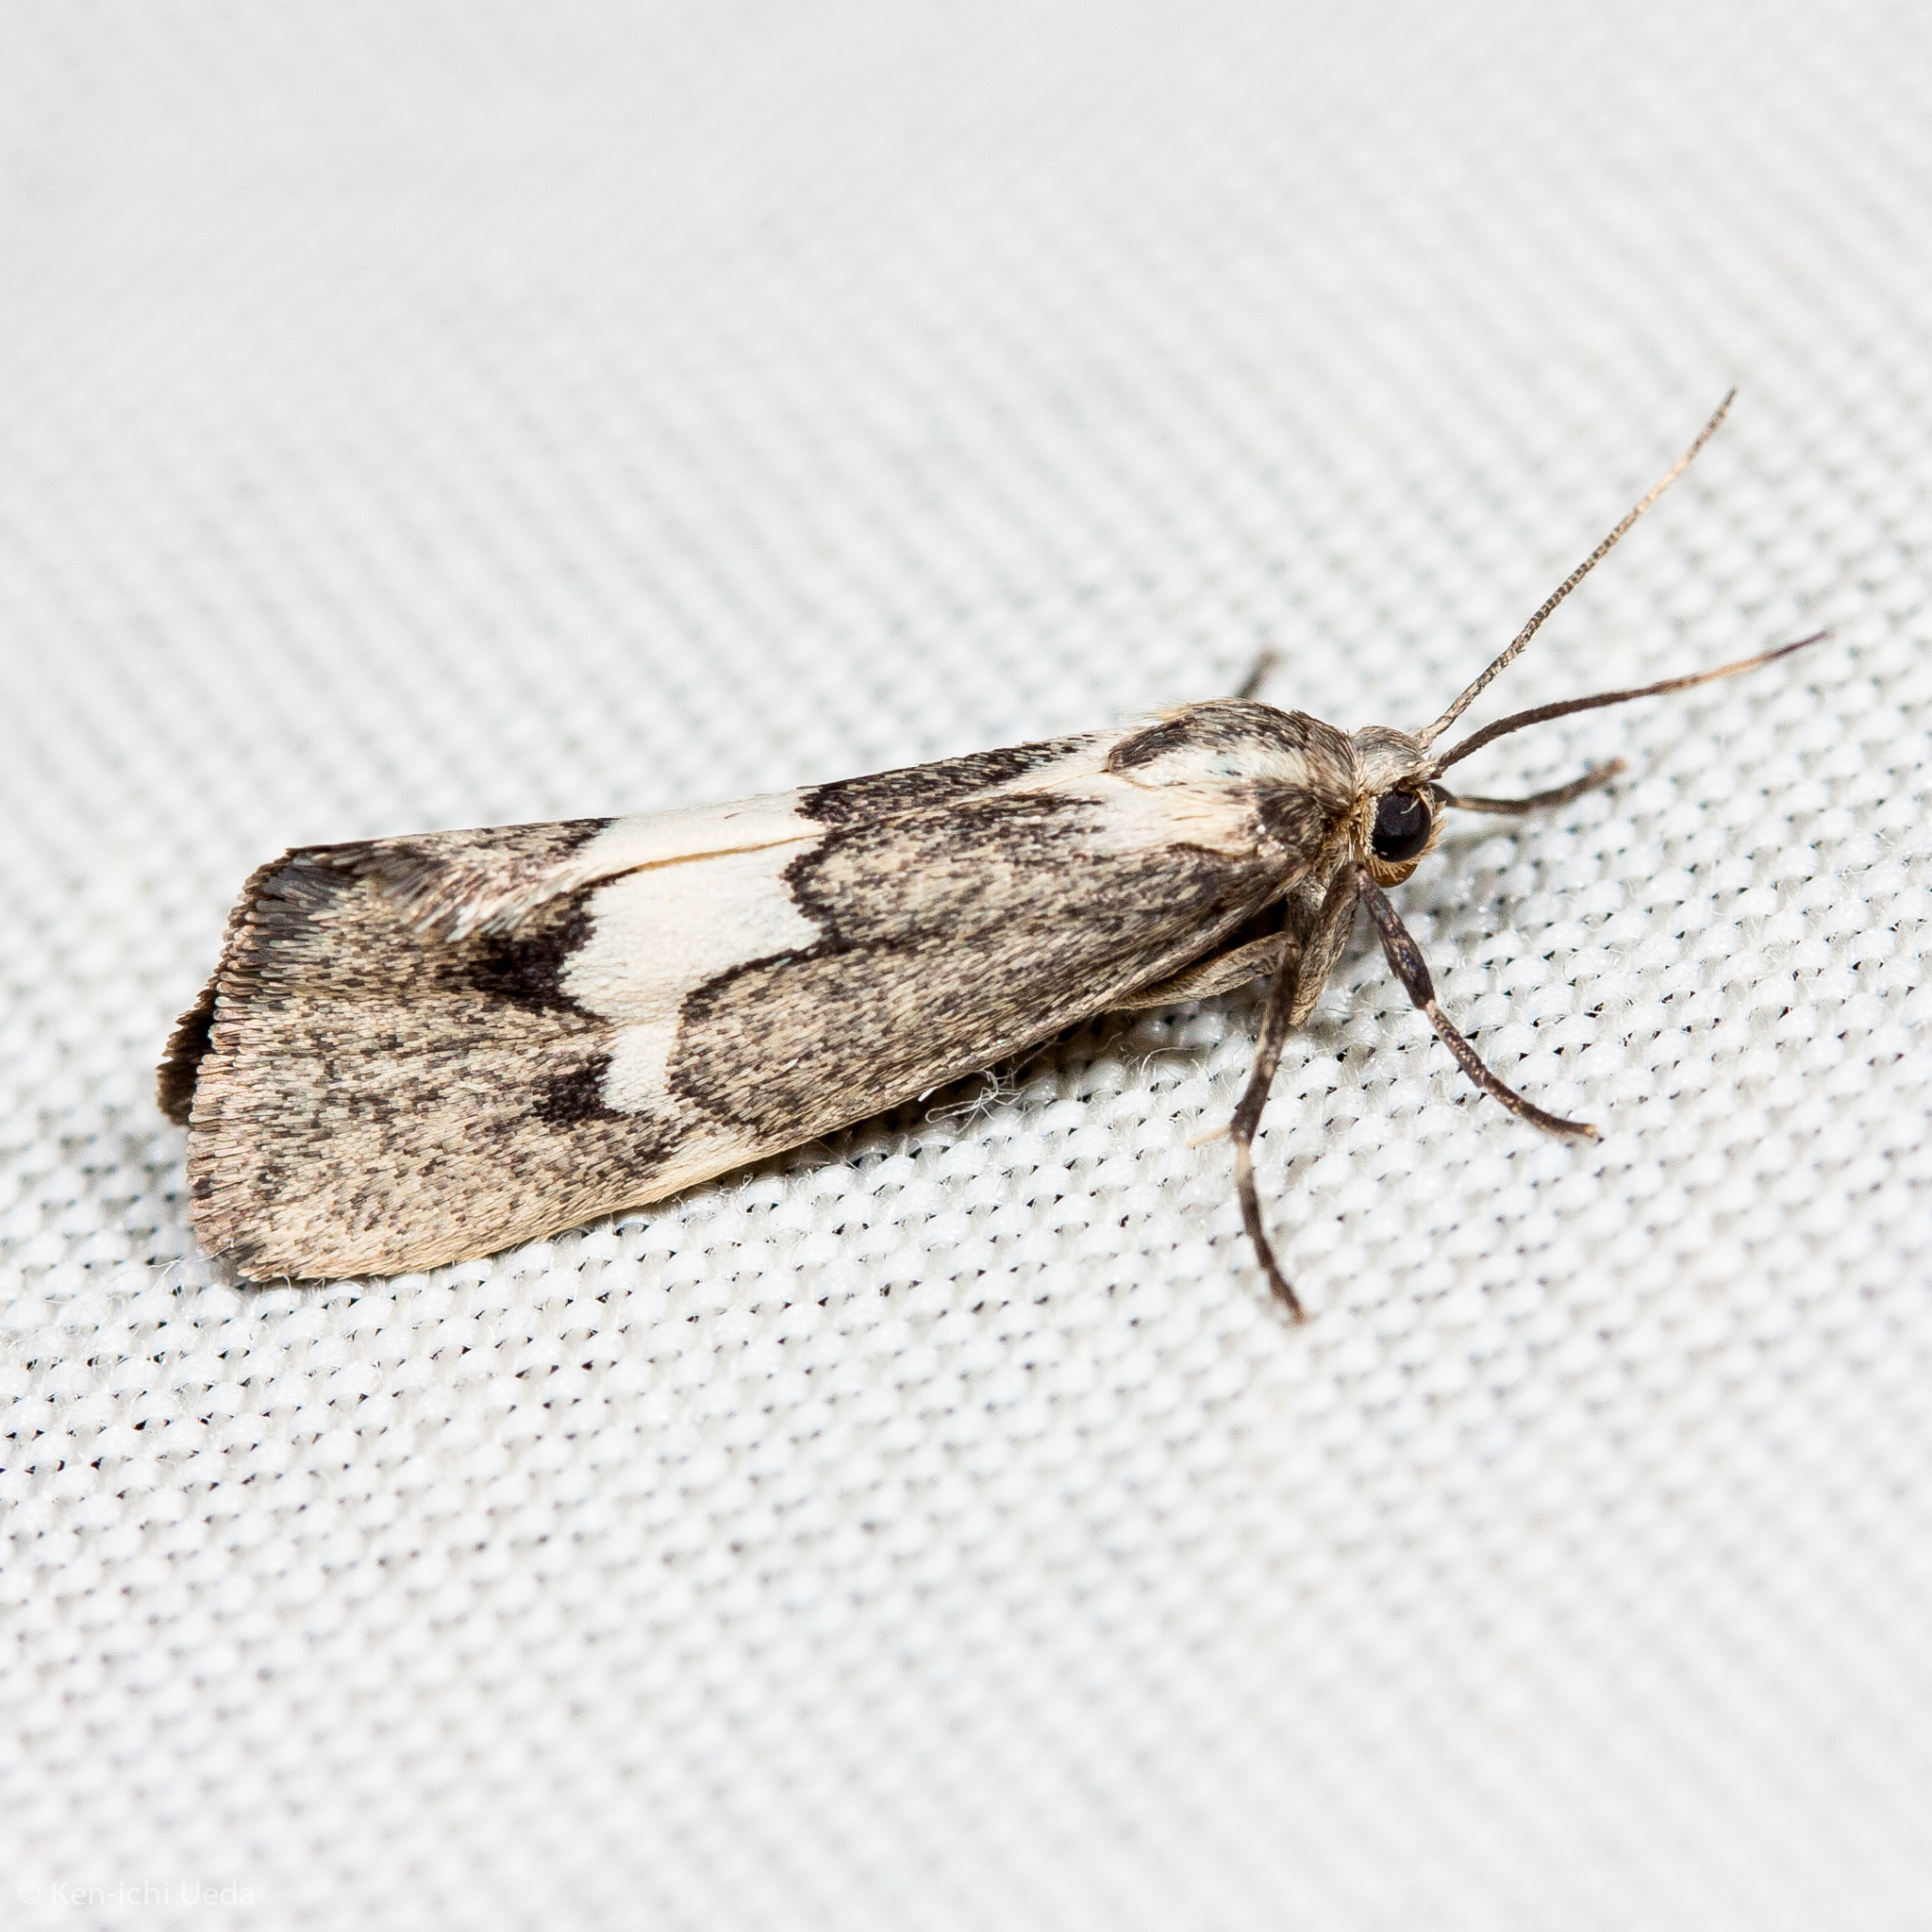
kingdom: Animalia
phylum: Arthropoda
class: Insecta
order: Lepidoptera
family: Erebidae
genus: Cisthene
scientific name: Cisthene deserta
